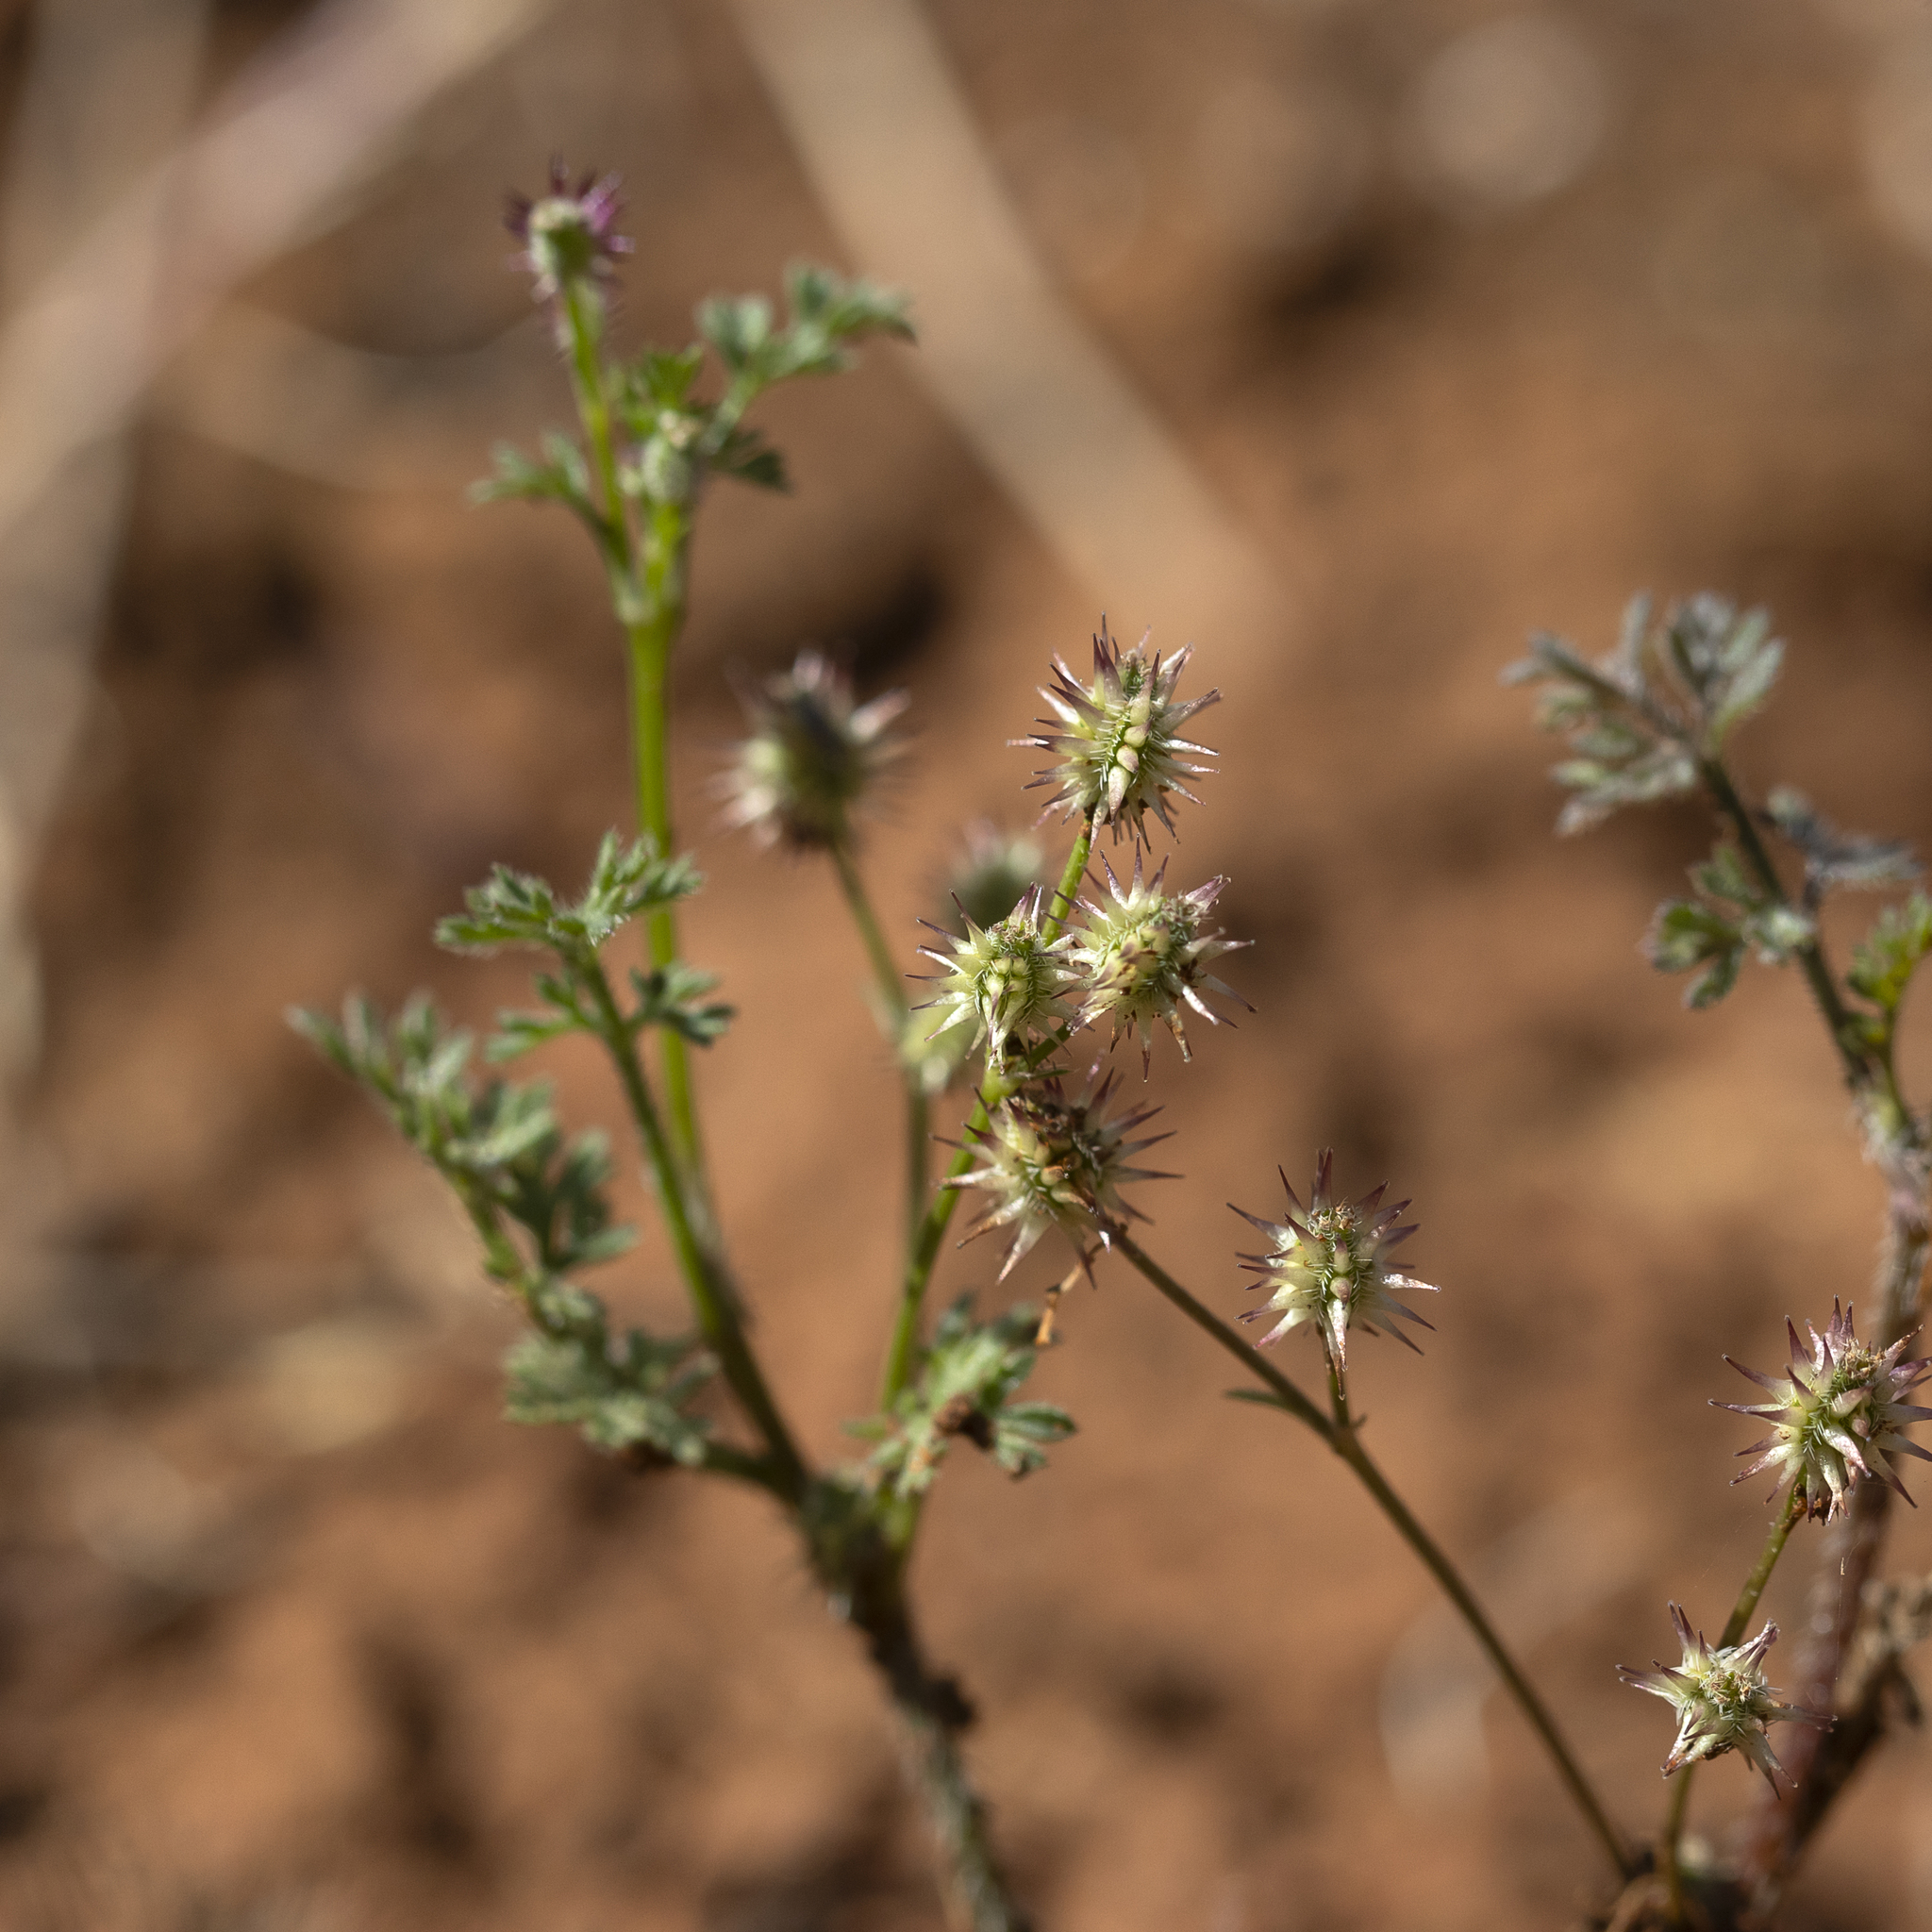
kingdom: Plantae
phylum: Tracheophyta
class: Magnoliopsida
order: Apiales
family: Apiaceae
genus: Daucus
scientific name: Daucus glochidiatus
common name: Australian carrot
